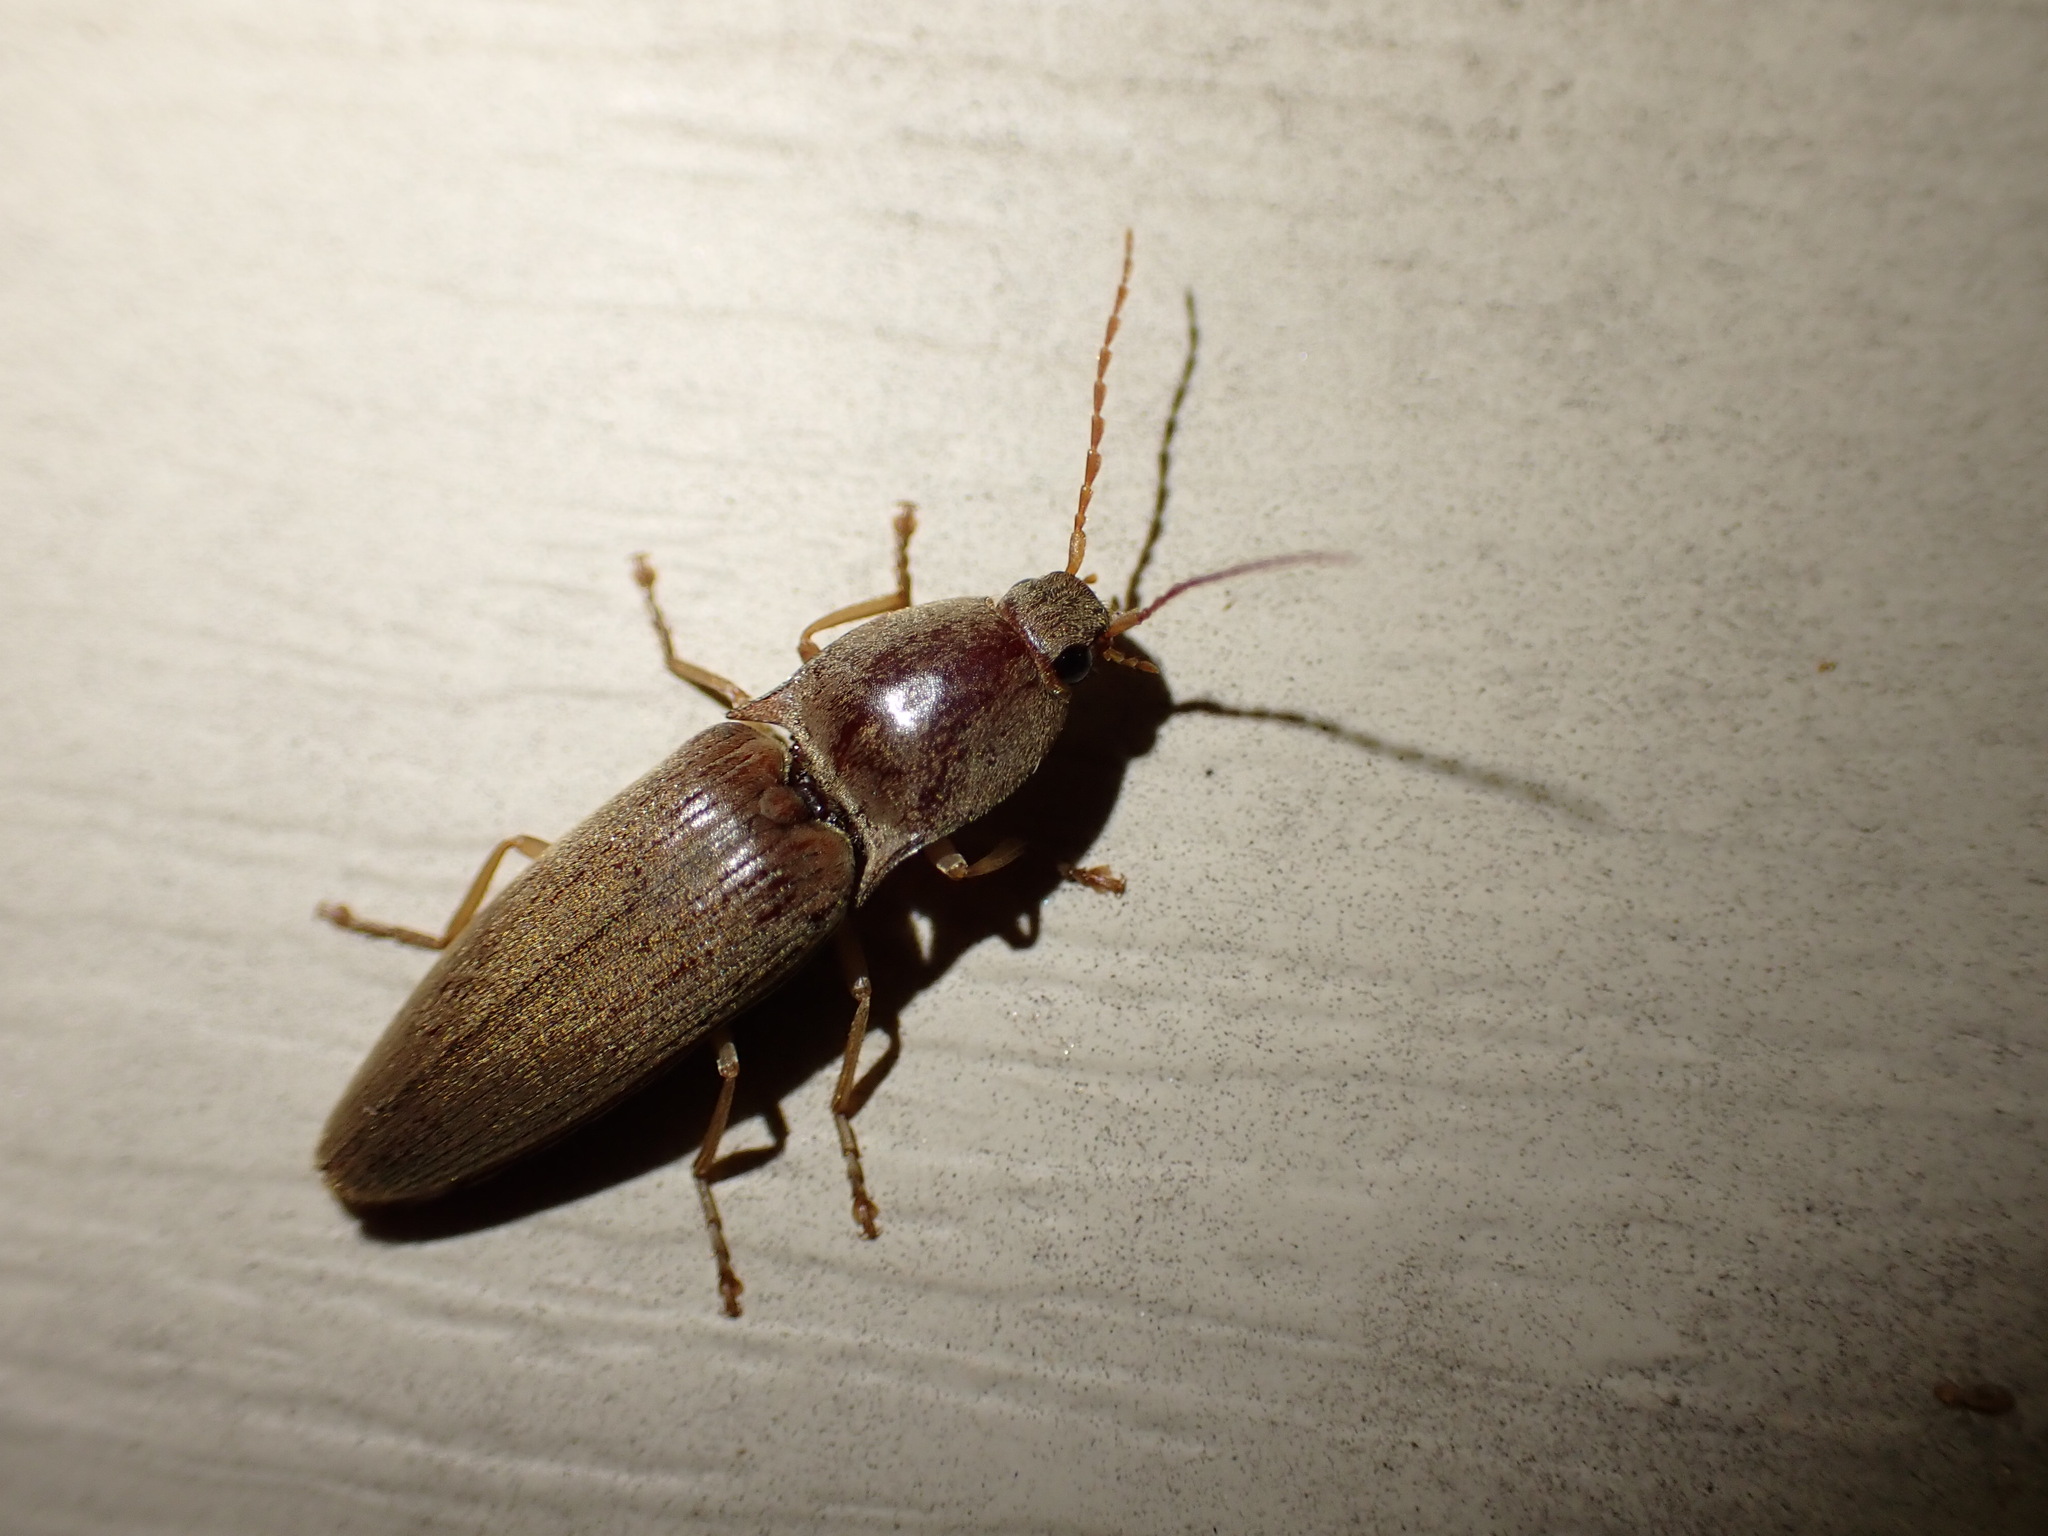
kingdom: Animalia
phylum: Arthropoda
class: Insecta
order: Coleoptera
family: Elateridae
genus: Monocrepidius
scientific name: Monocrepidius lividus
